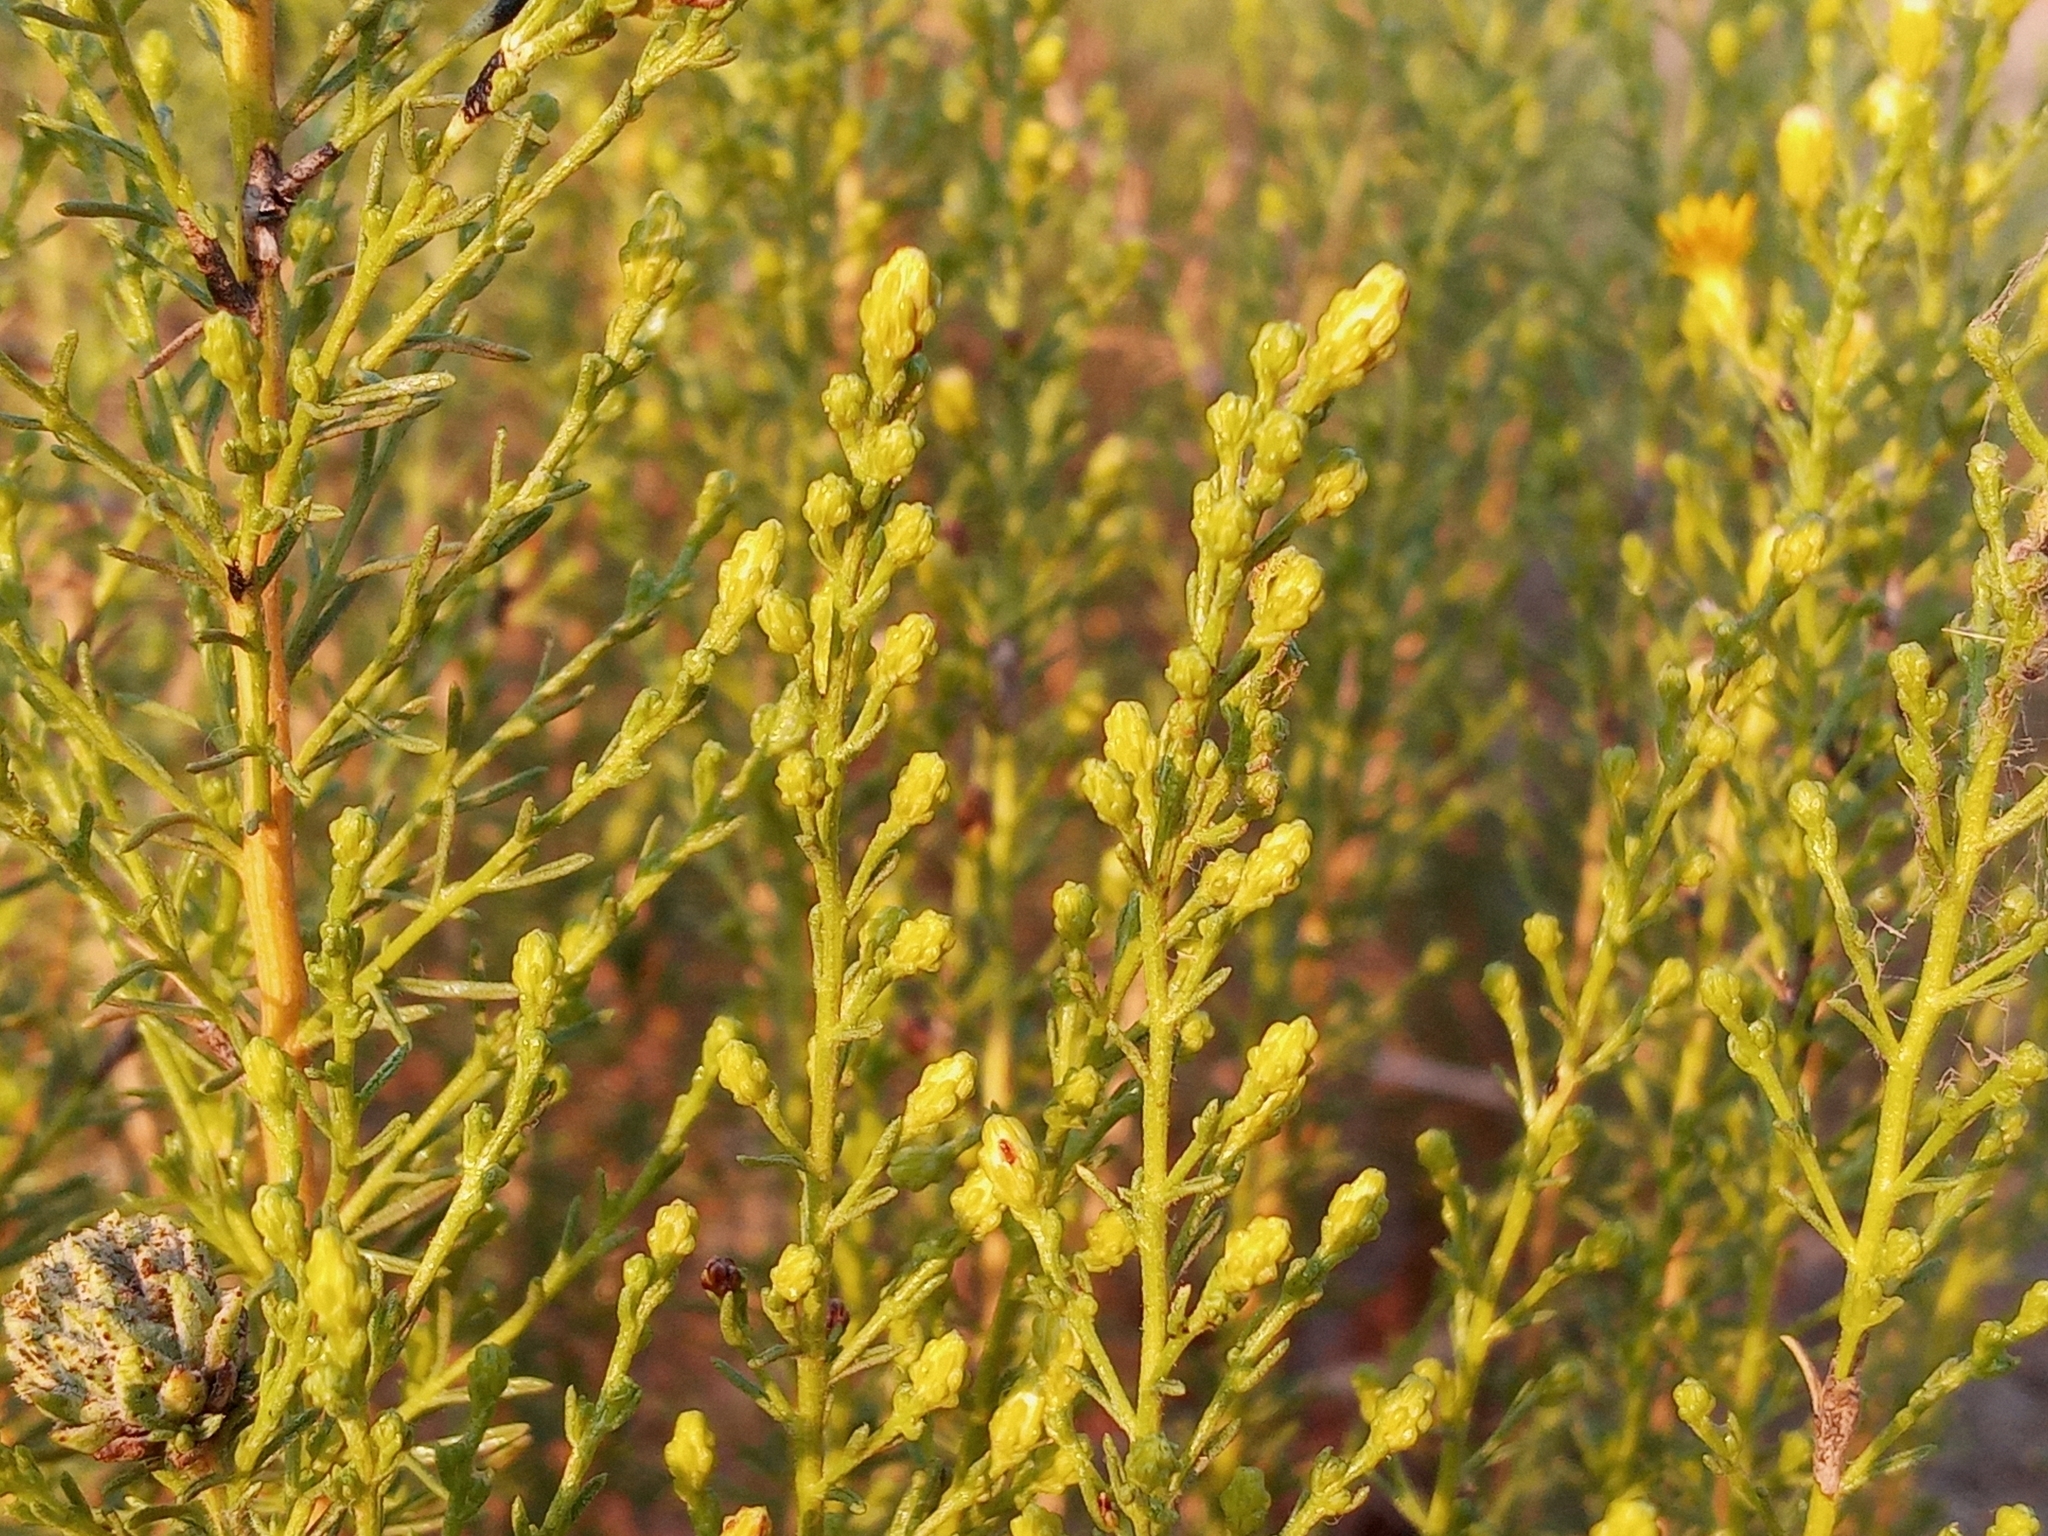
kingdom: Plantae
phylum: Tracheophyta
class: Magnoliopsida
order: Asterales
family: Asteraceae
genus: Ericameria
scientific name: Ericameria palmeri
